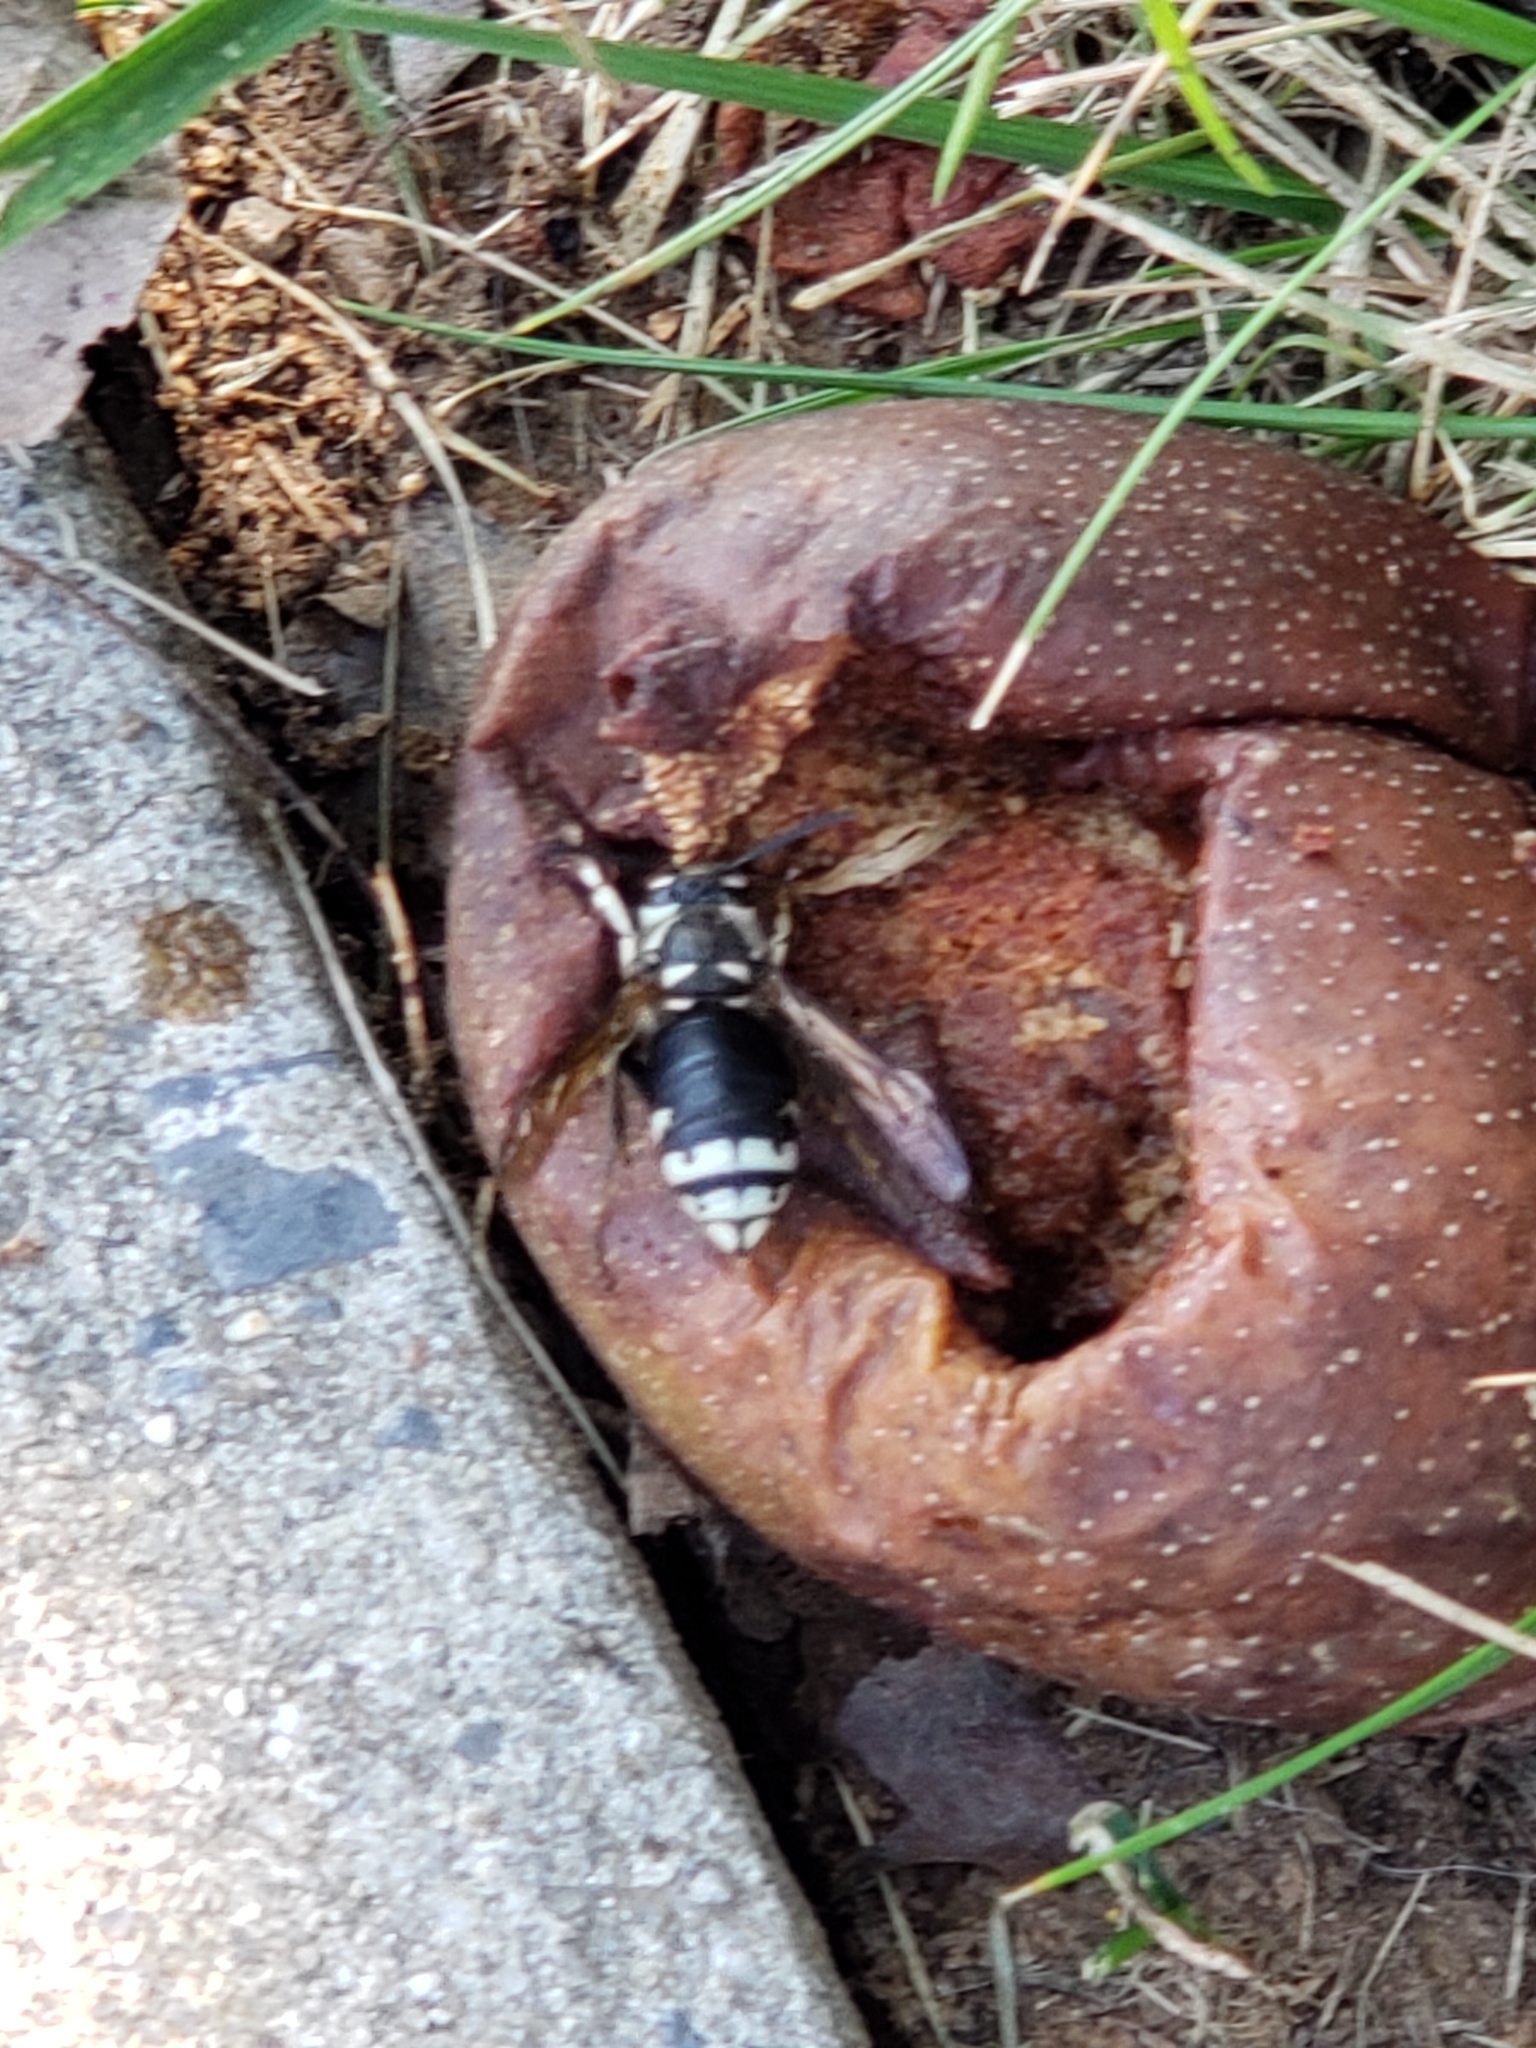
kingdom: Animalia
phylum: Arthropoda
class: Insecta
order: Hymenoptera
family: Vespidae
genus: Dolichovespula
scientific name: Dolichovespula maculata
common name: Bald-faced hornet
